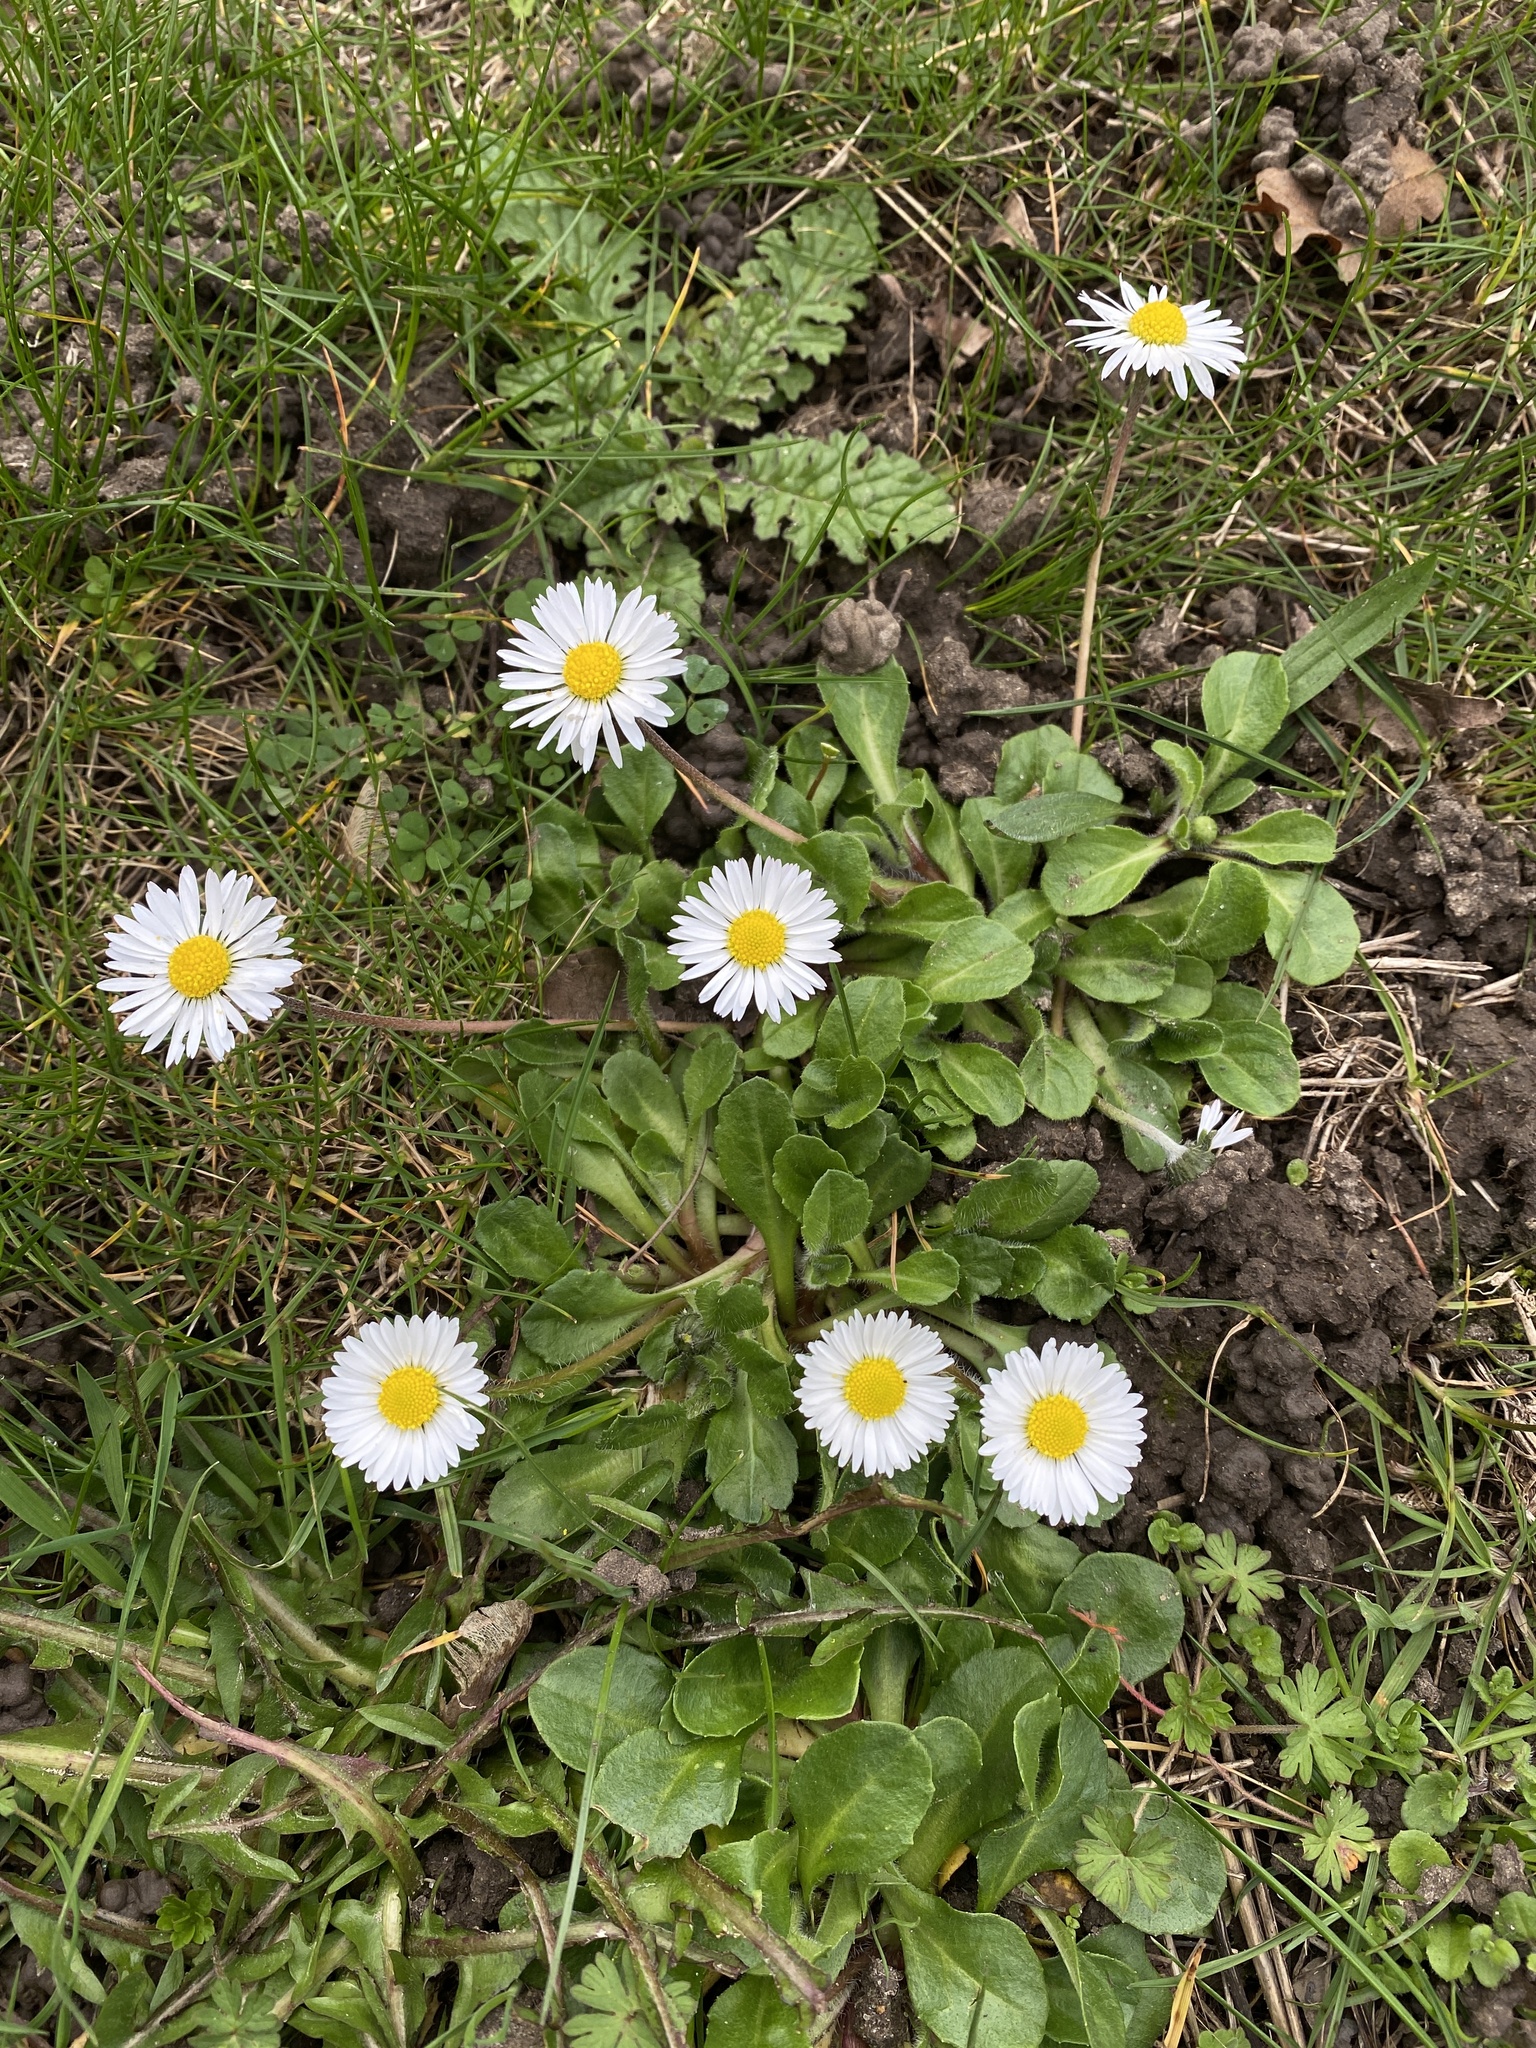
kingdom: Plantae
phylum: Tracheophyta
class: Magnoliopsida
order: Asterales
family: Asteraceae
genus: Bellis
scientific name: Bellis perennis
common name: Lawndaisy
